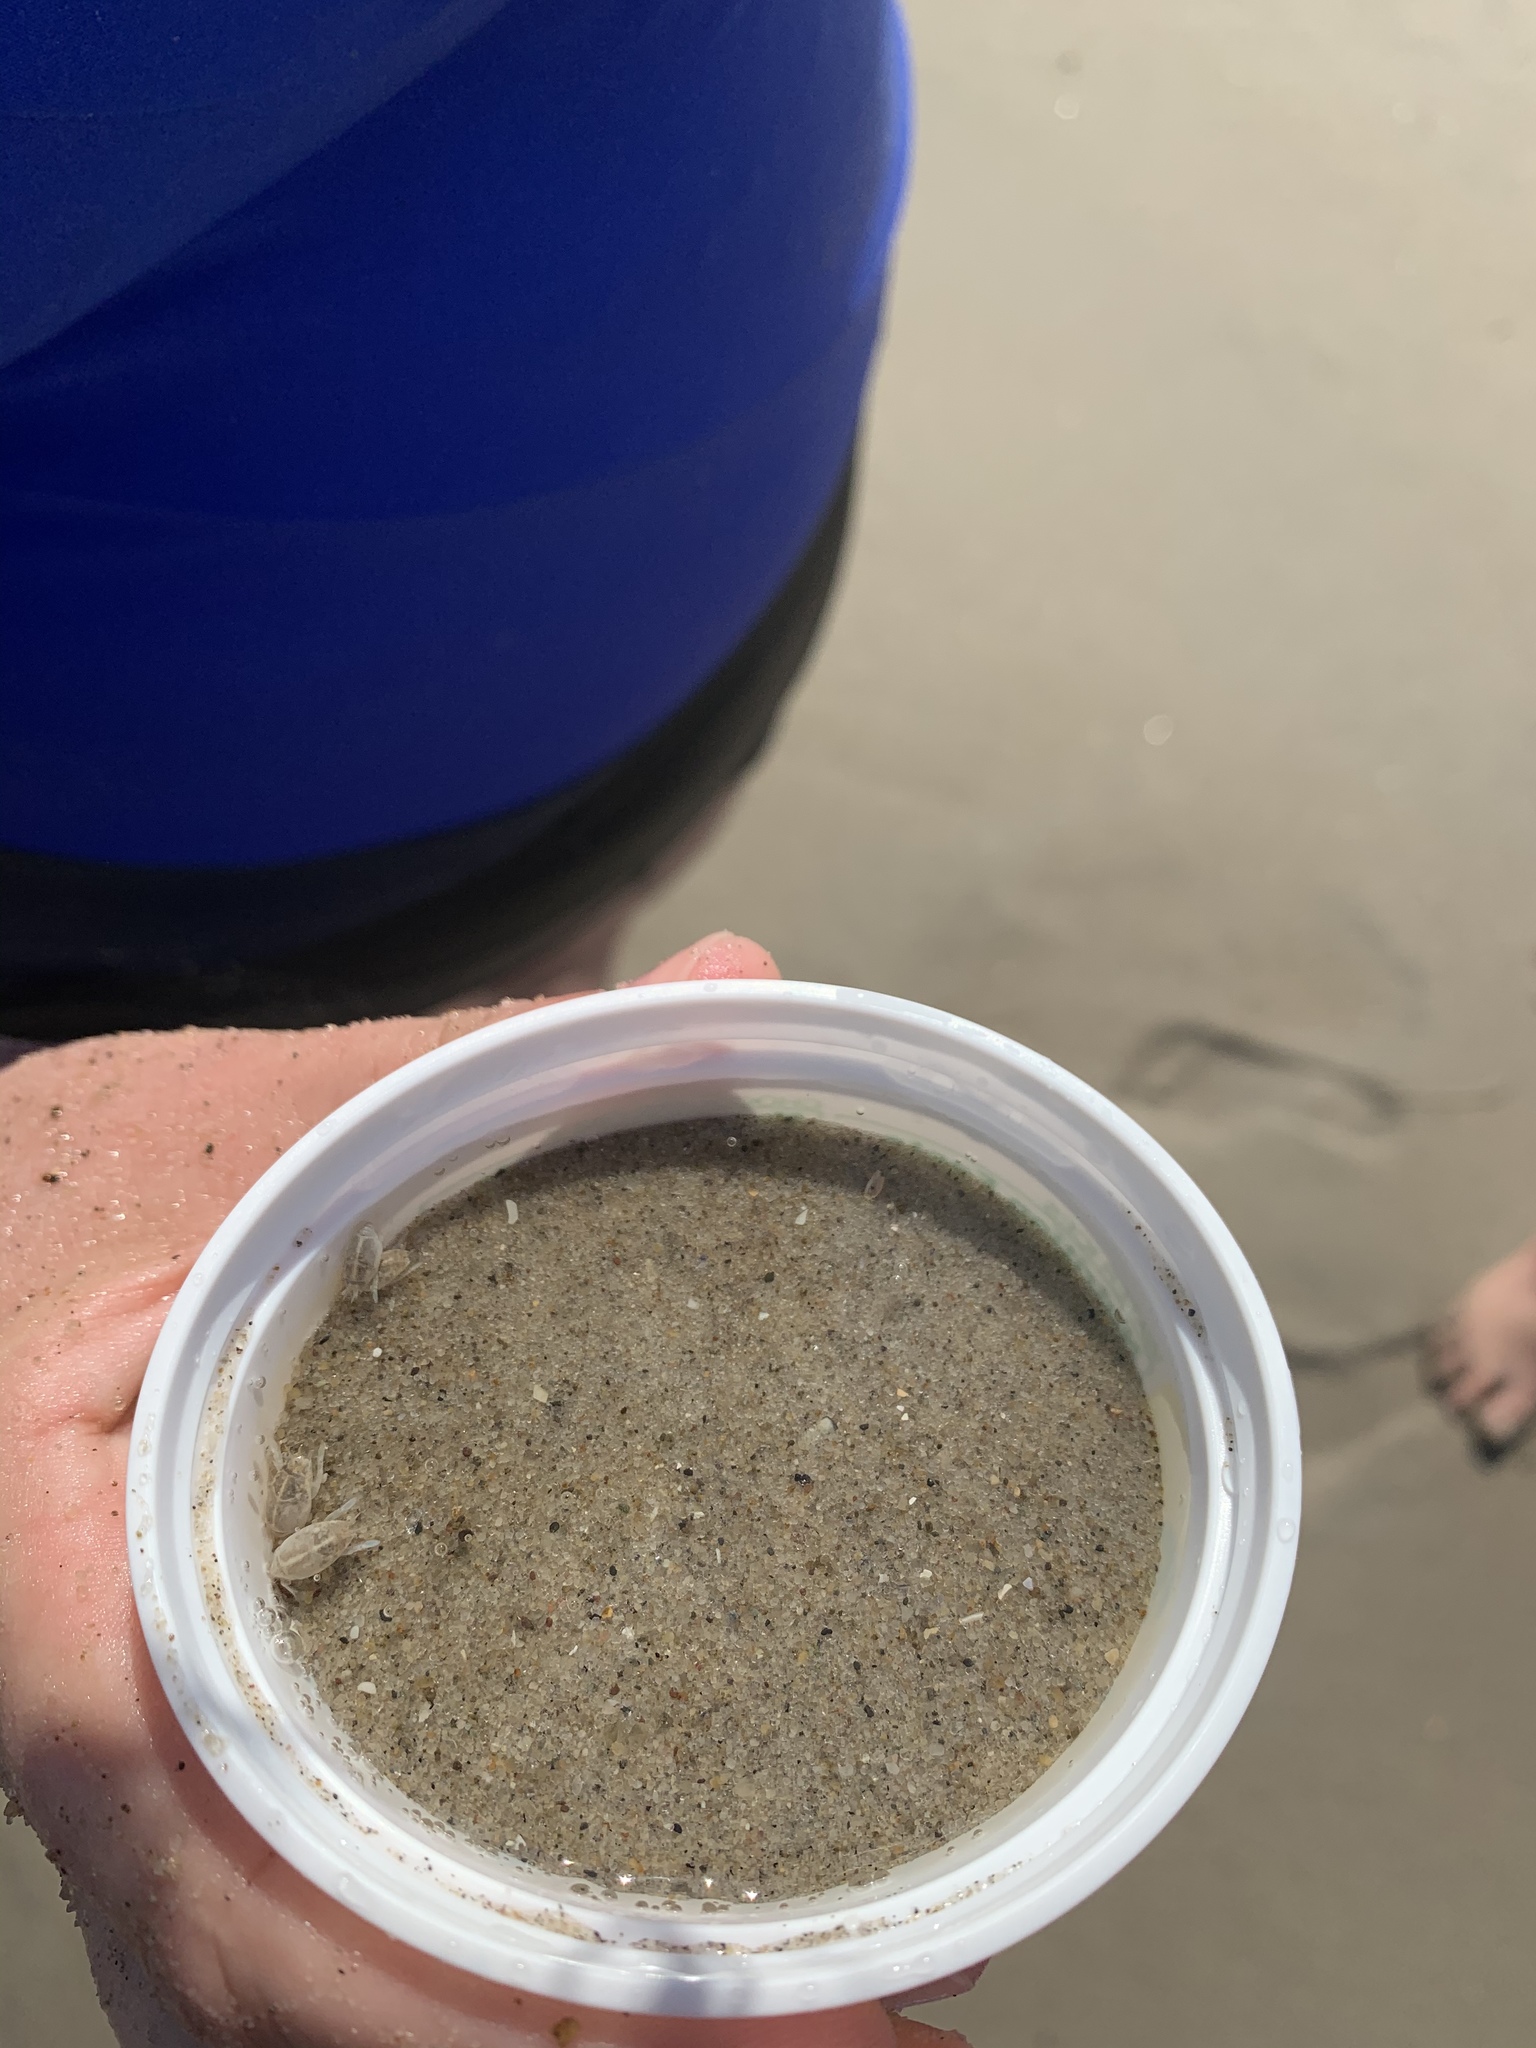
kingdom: Animalia
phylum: Arthropoda
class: Malacostraca
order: Decapoda
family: Hippidae
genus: Emerita
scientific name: Emerita talpoida
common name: Atlantic sand crab
